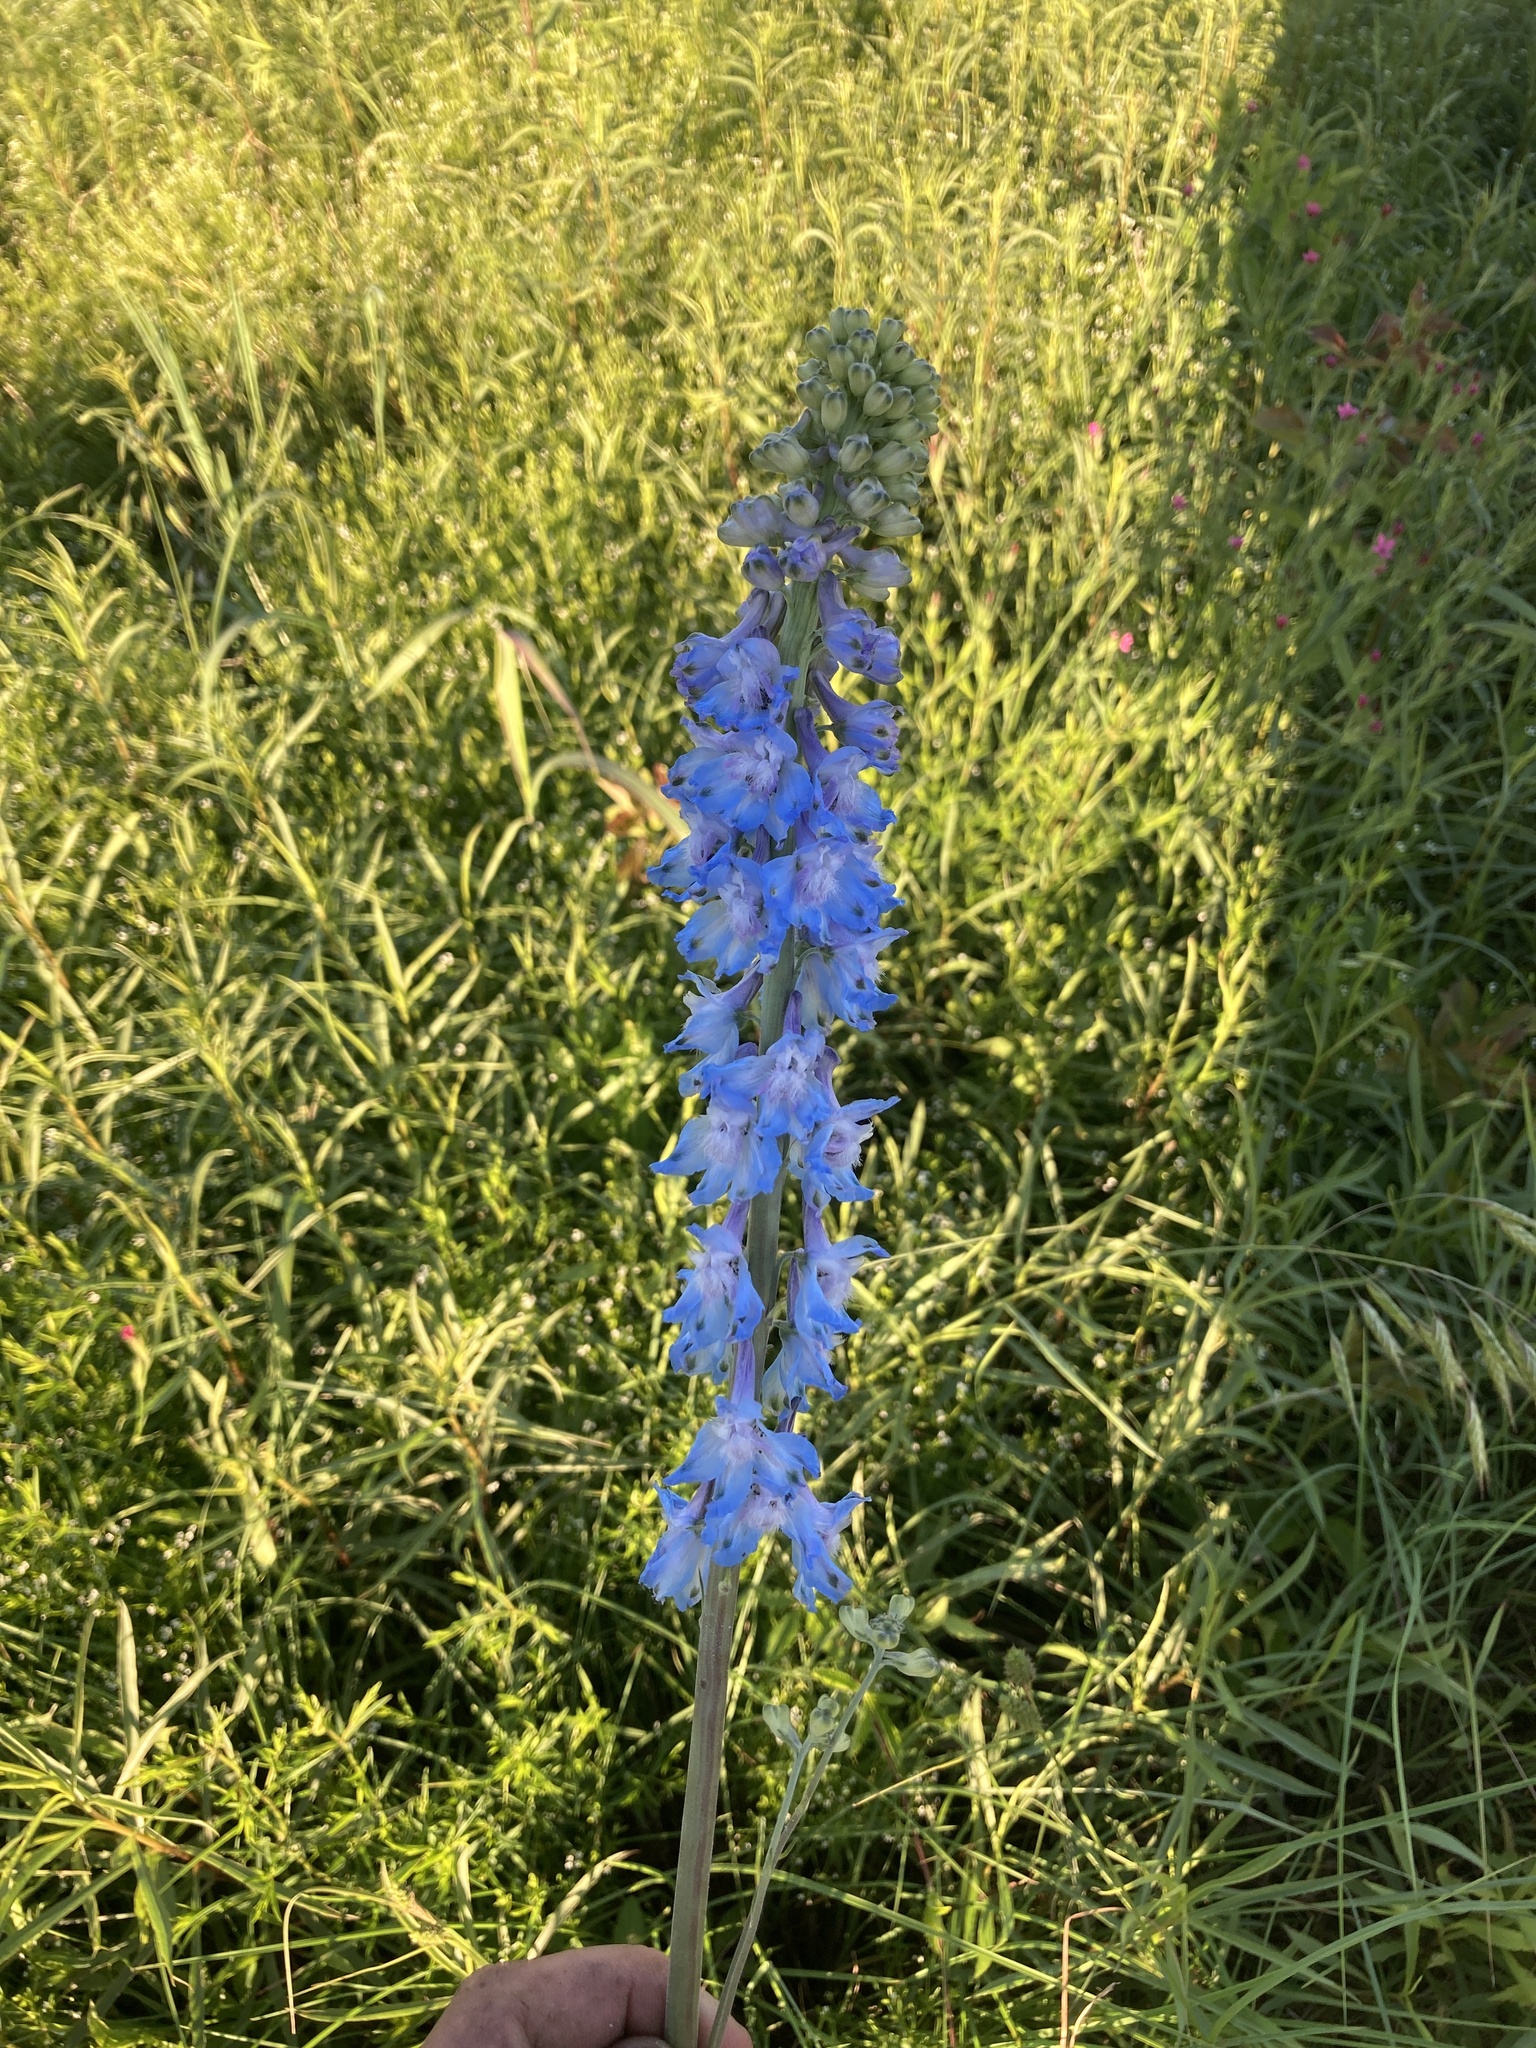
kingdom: Plantae
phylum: Tracheophyta
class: Magnoliopsida
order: Ranunculales
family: Ranunculaceae
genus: Delphinium
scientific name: Delphinium carolinianum
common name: Carolina larkspur
